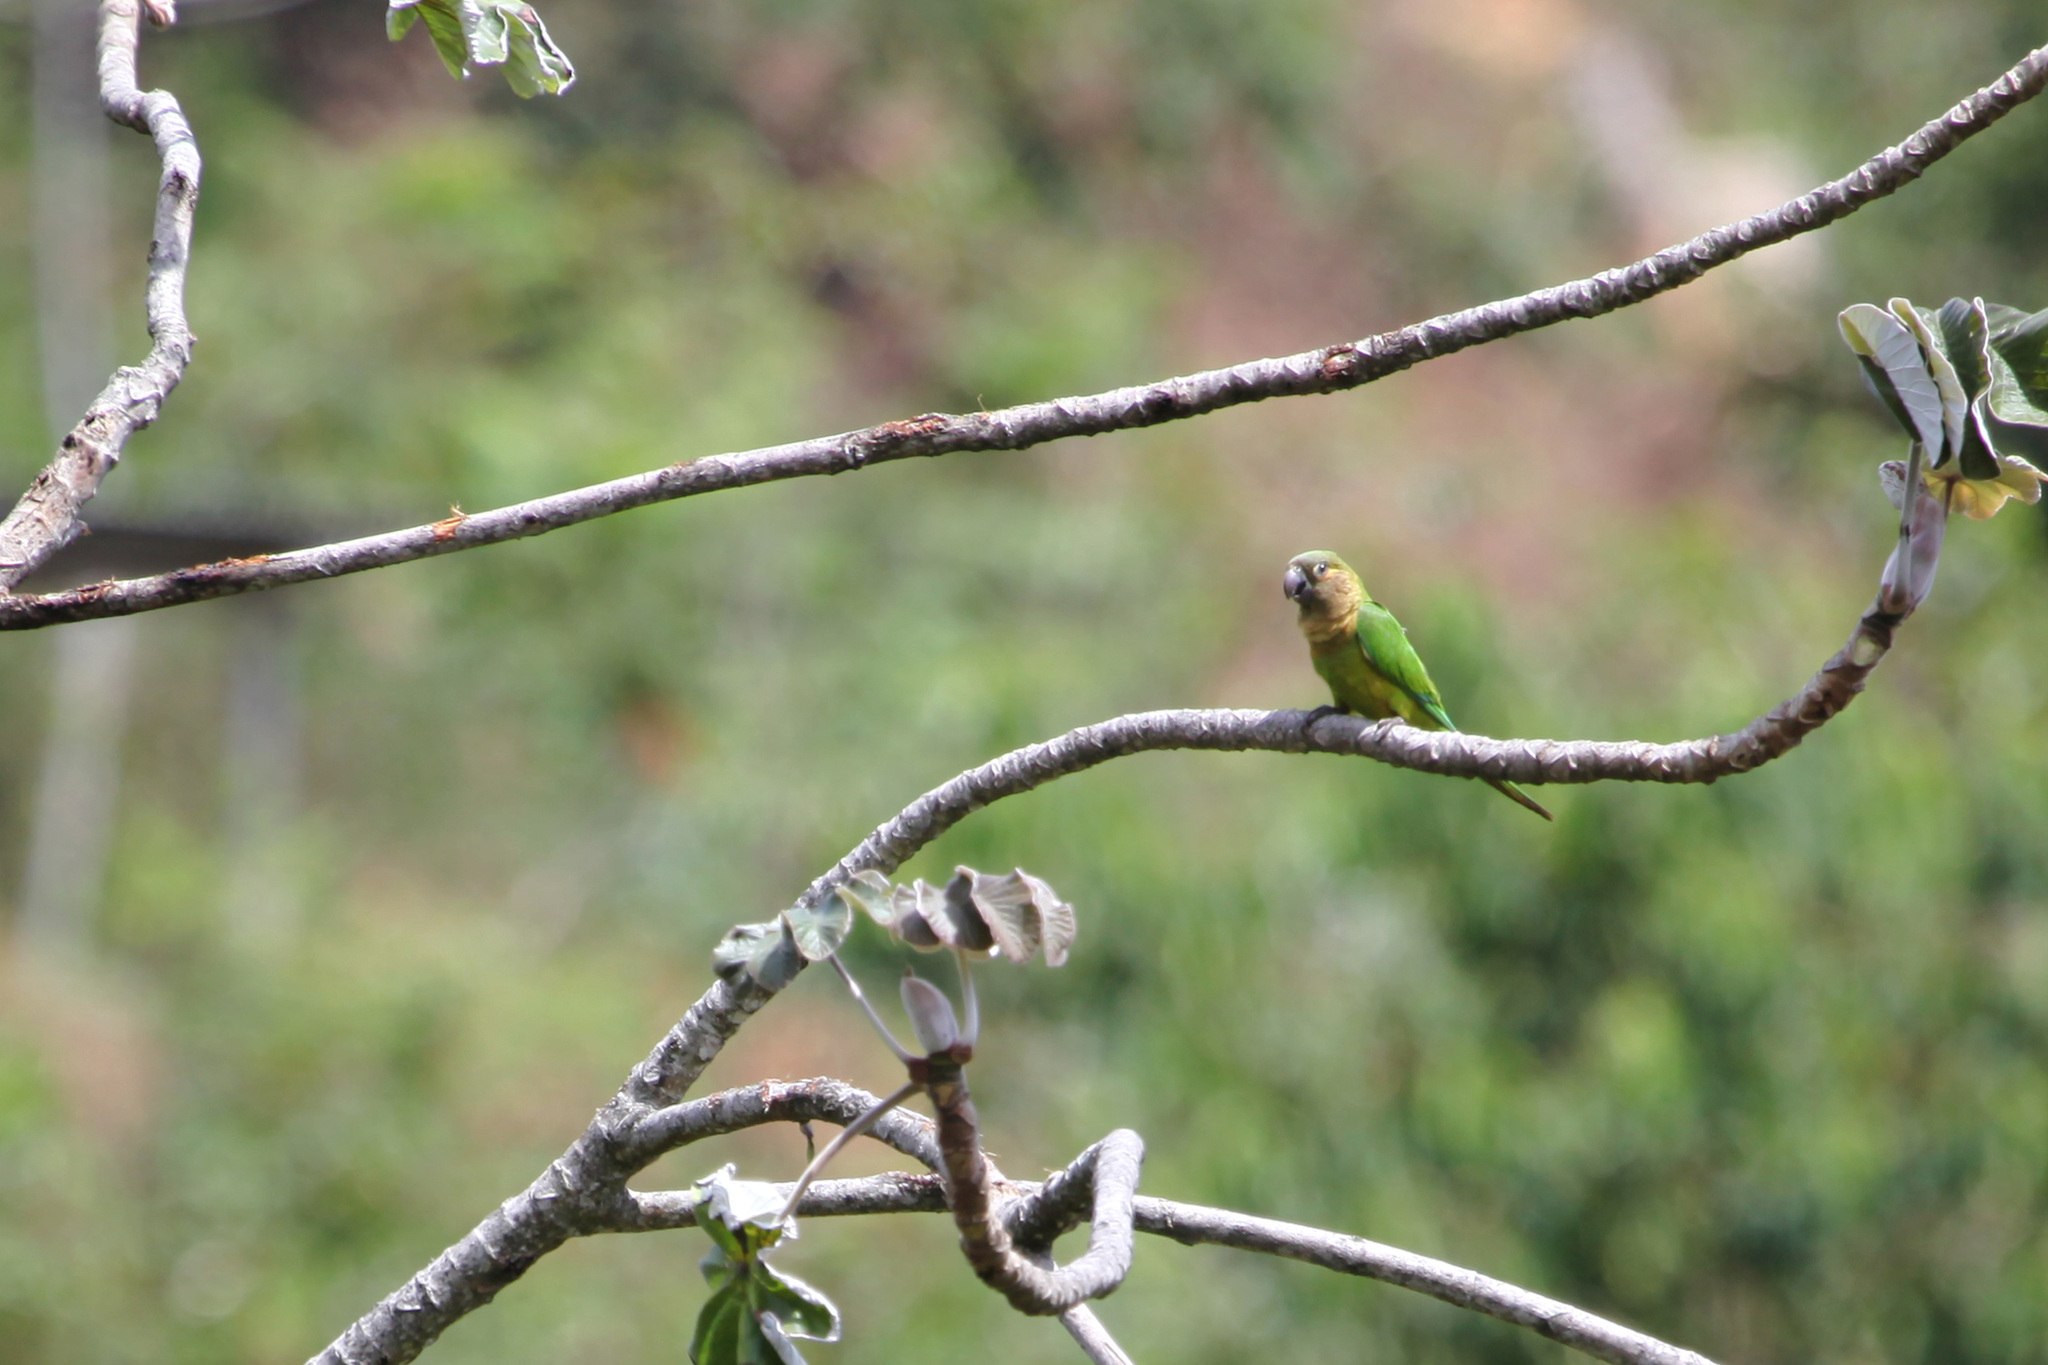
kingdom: Animalia
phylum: Chordata
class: Aves
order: Psittaciformes
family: Psittacidae
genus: Aratinga
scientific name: Aratinga pertinax
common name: Brown-throated parakeet
